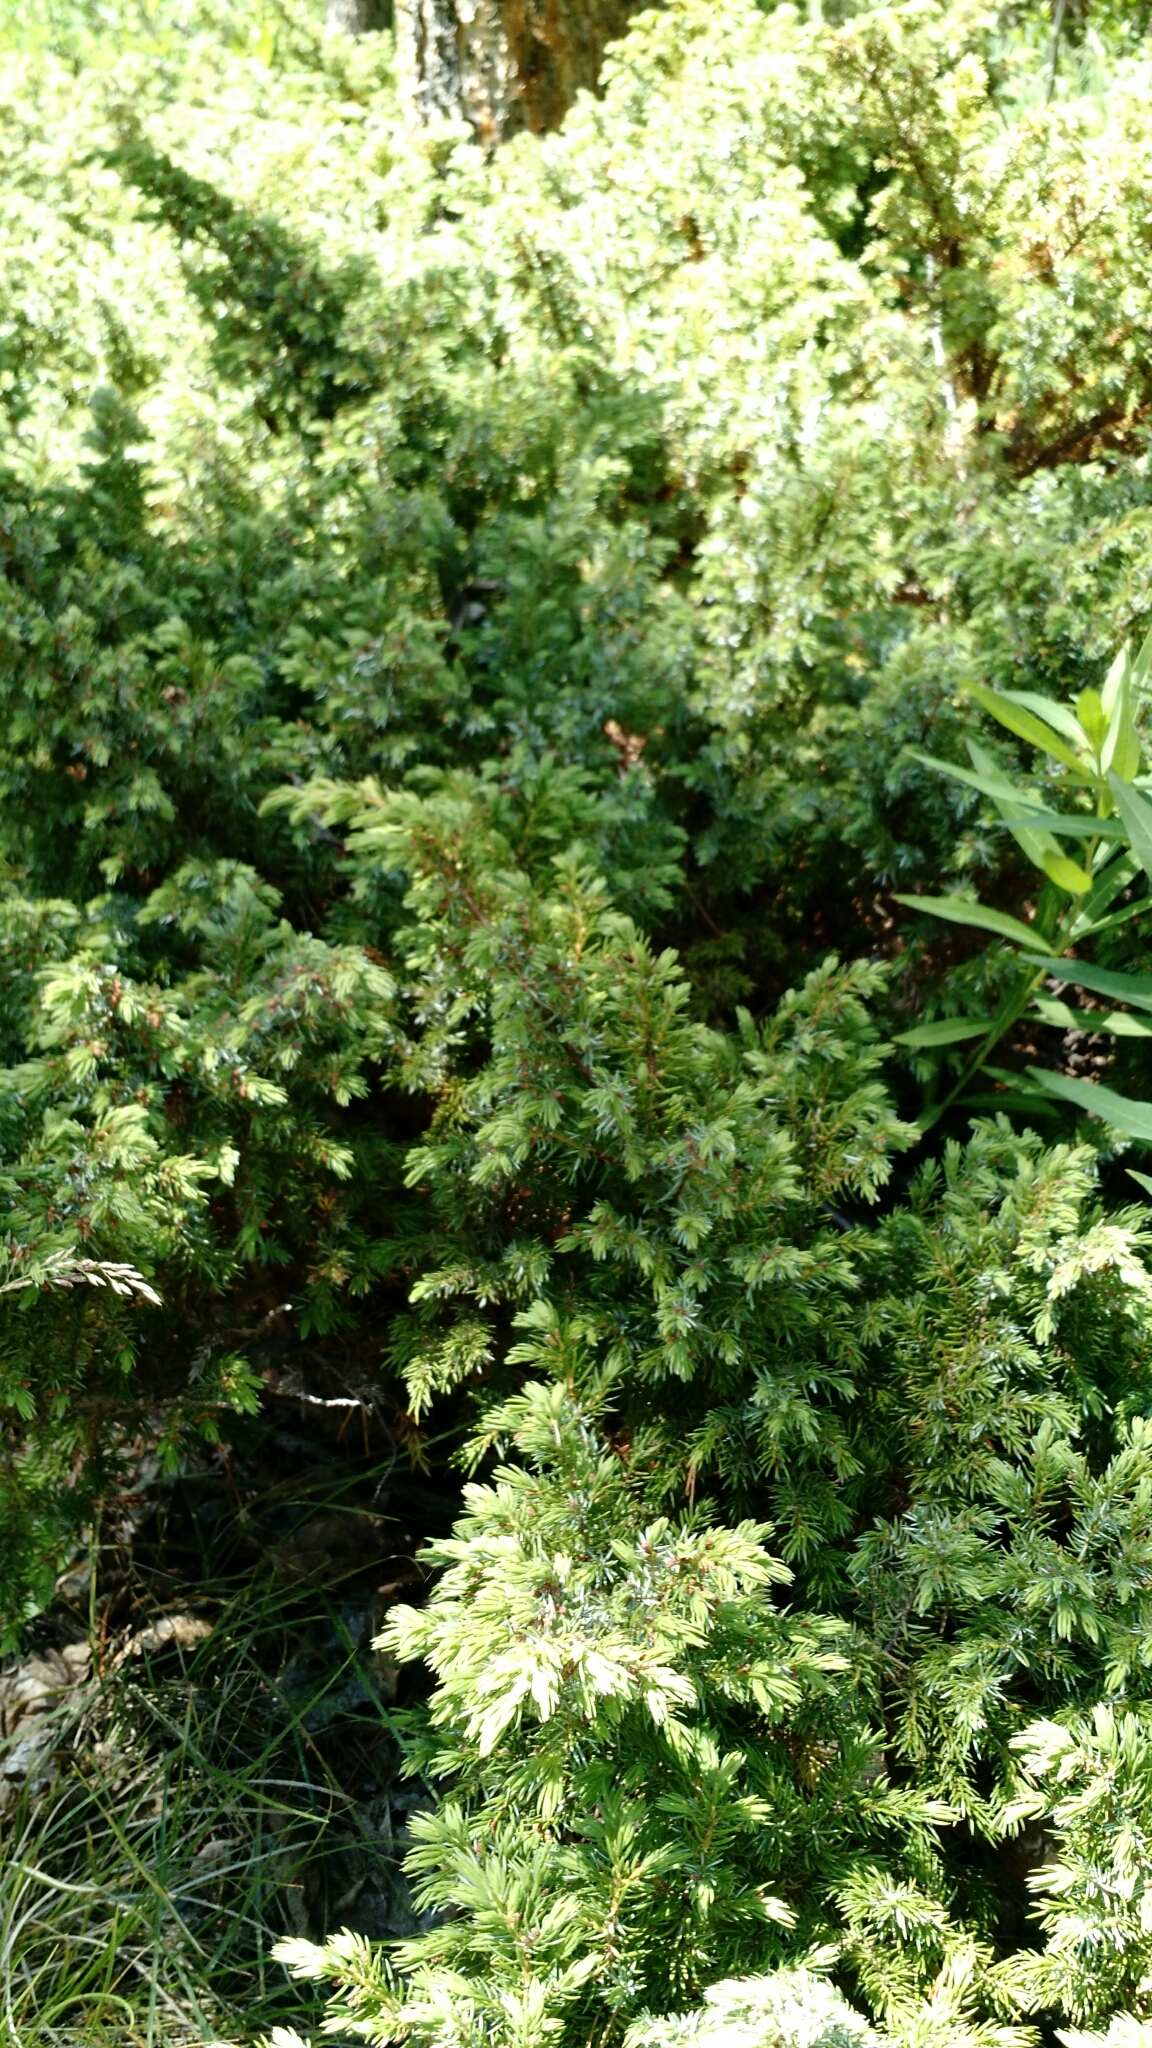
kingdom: Plantae
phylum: Tracheophyta
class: Pinopsida
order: Pinales
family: Cupressaceae
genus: Juniperus
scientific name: Juniperus communis
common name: Common juniper
